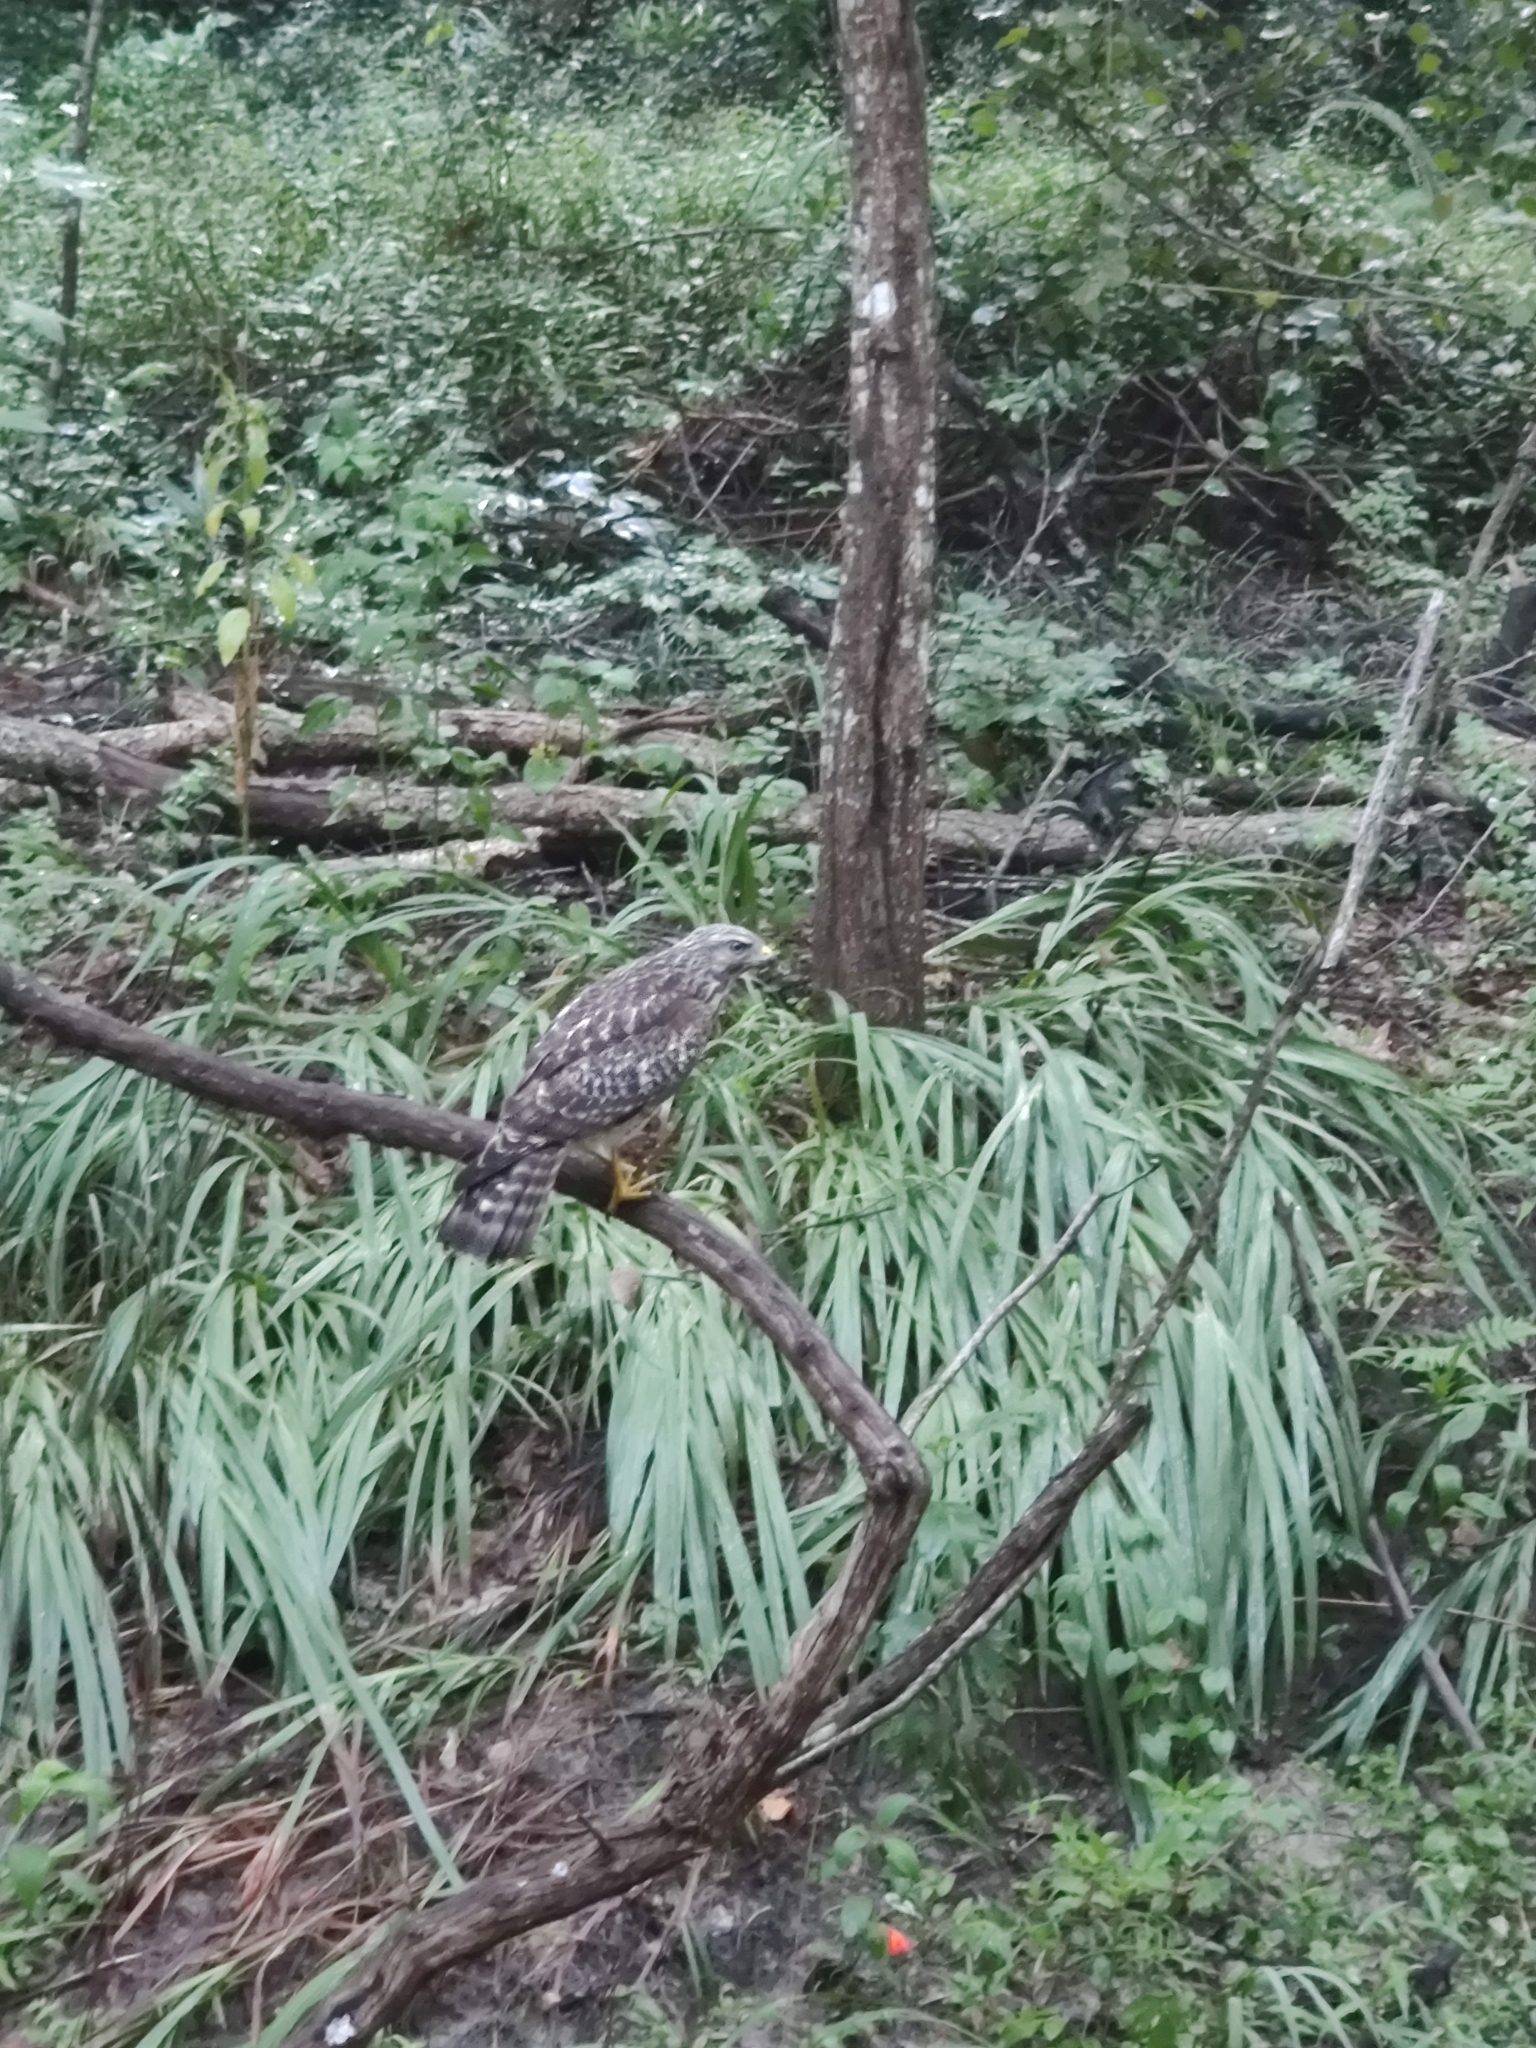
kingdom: Animalia
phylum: Chordata
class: Aves
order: Accipitriformes
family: Accipitridae
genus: Buteo
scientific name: Buteo lineatus
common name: Red-shouldered hawk
